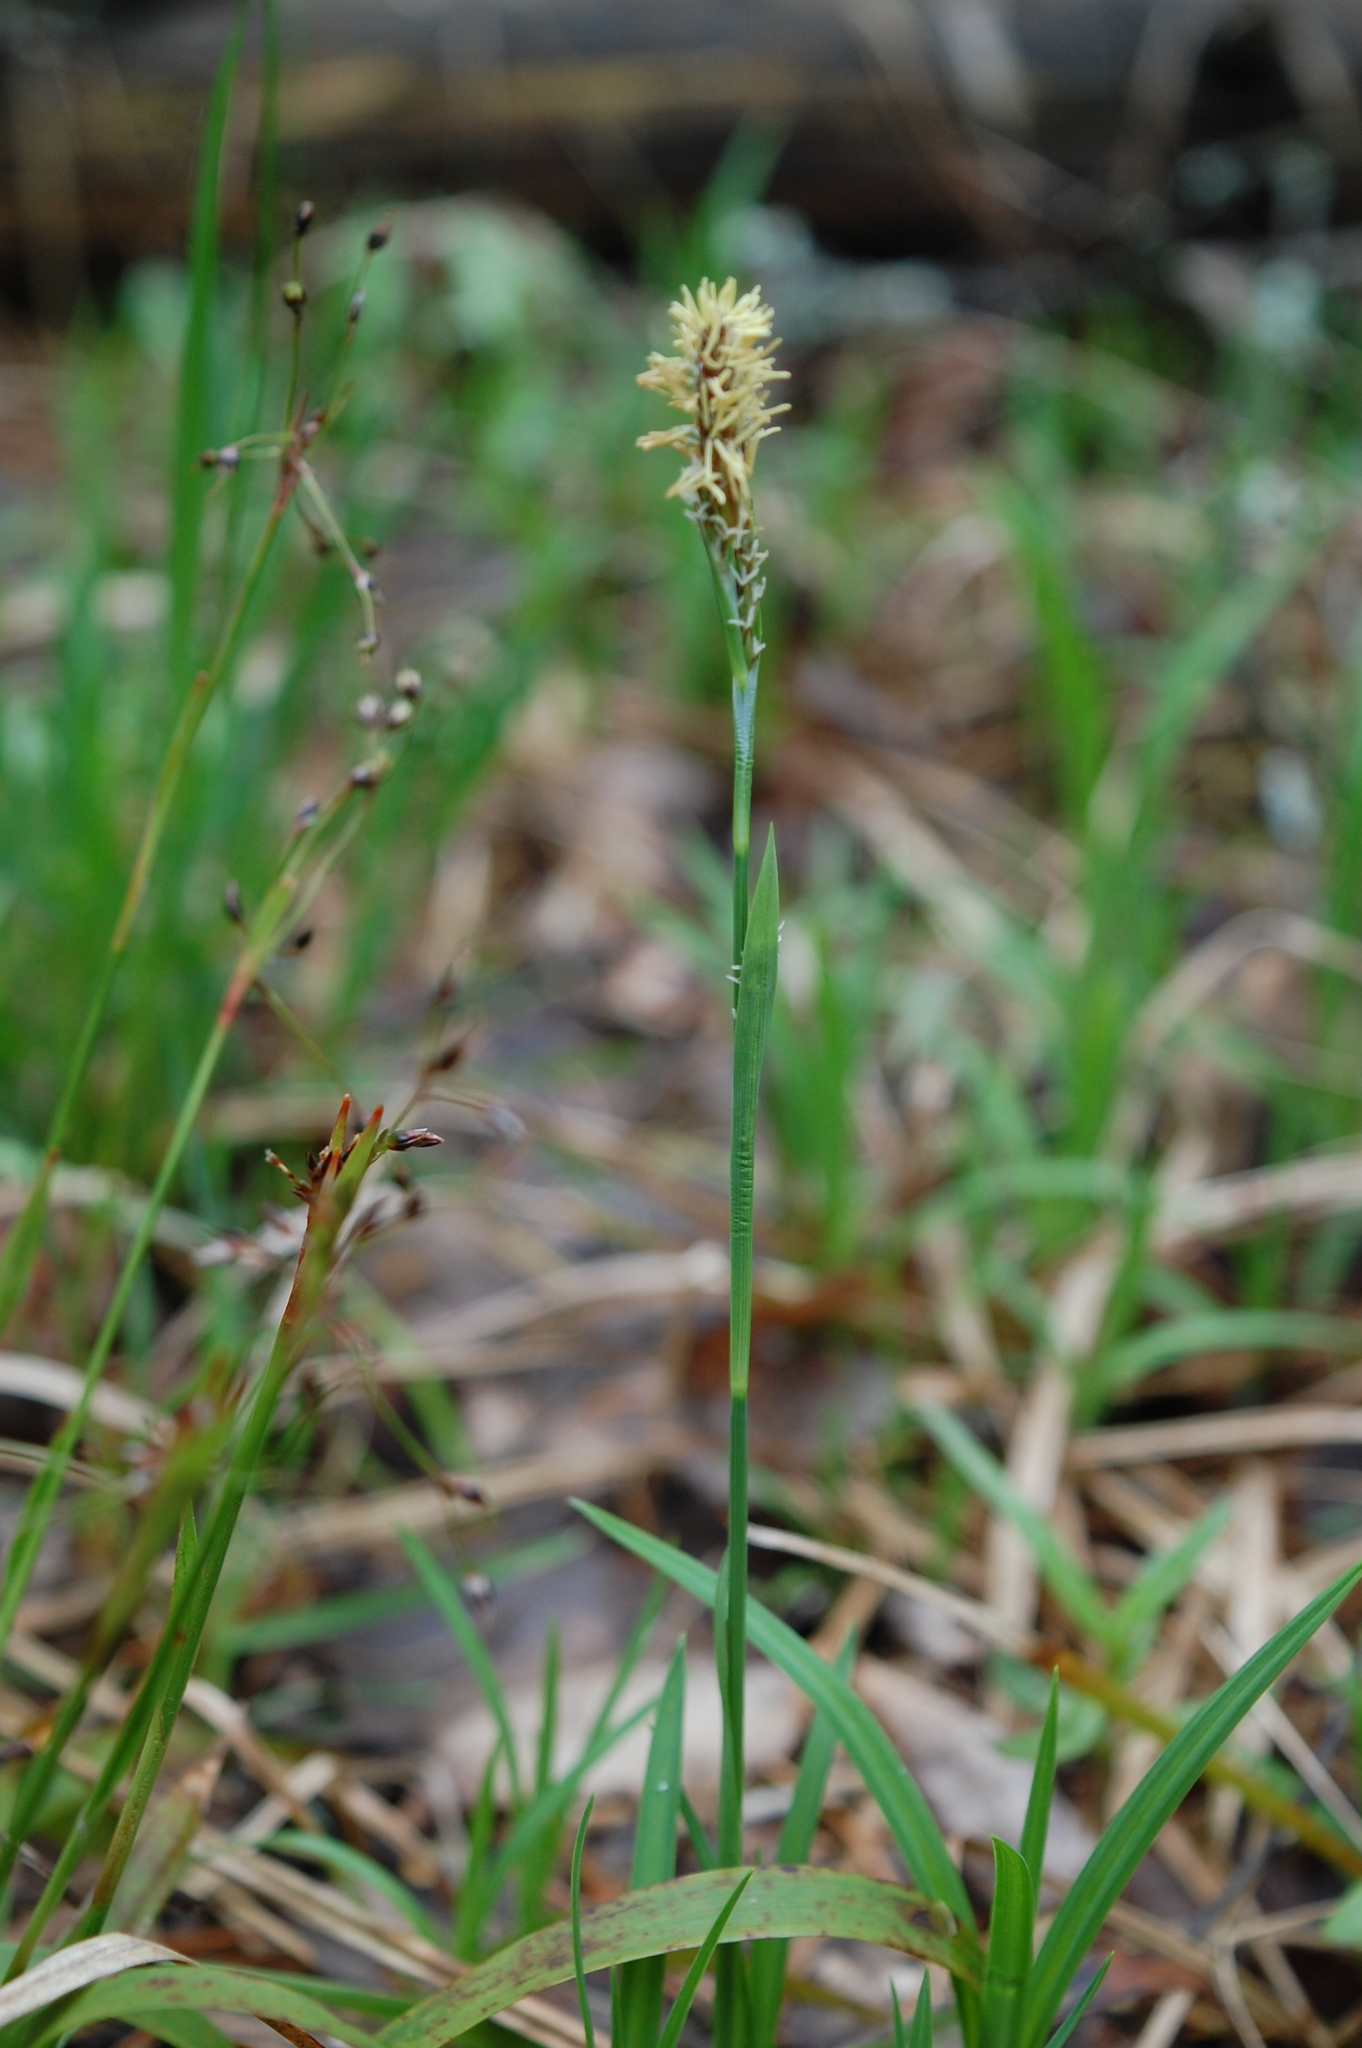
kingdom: Plantae
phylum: Tracheophyta
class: Liliopsida
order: Poales
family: Cyperaceae
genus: Carex
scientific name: Carex pilosa
